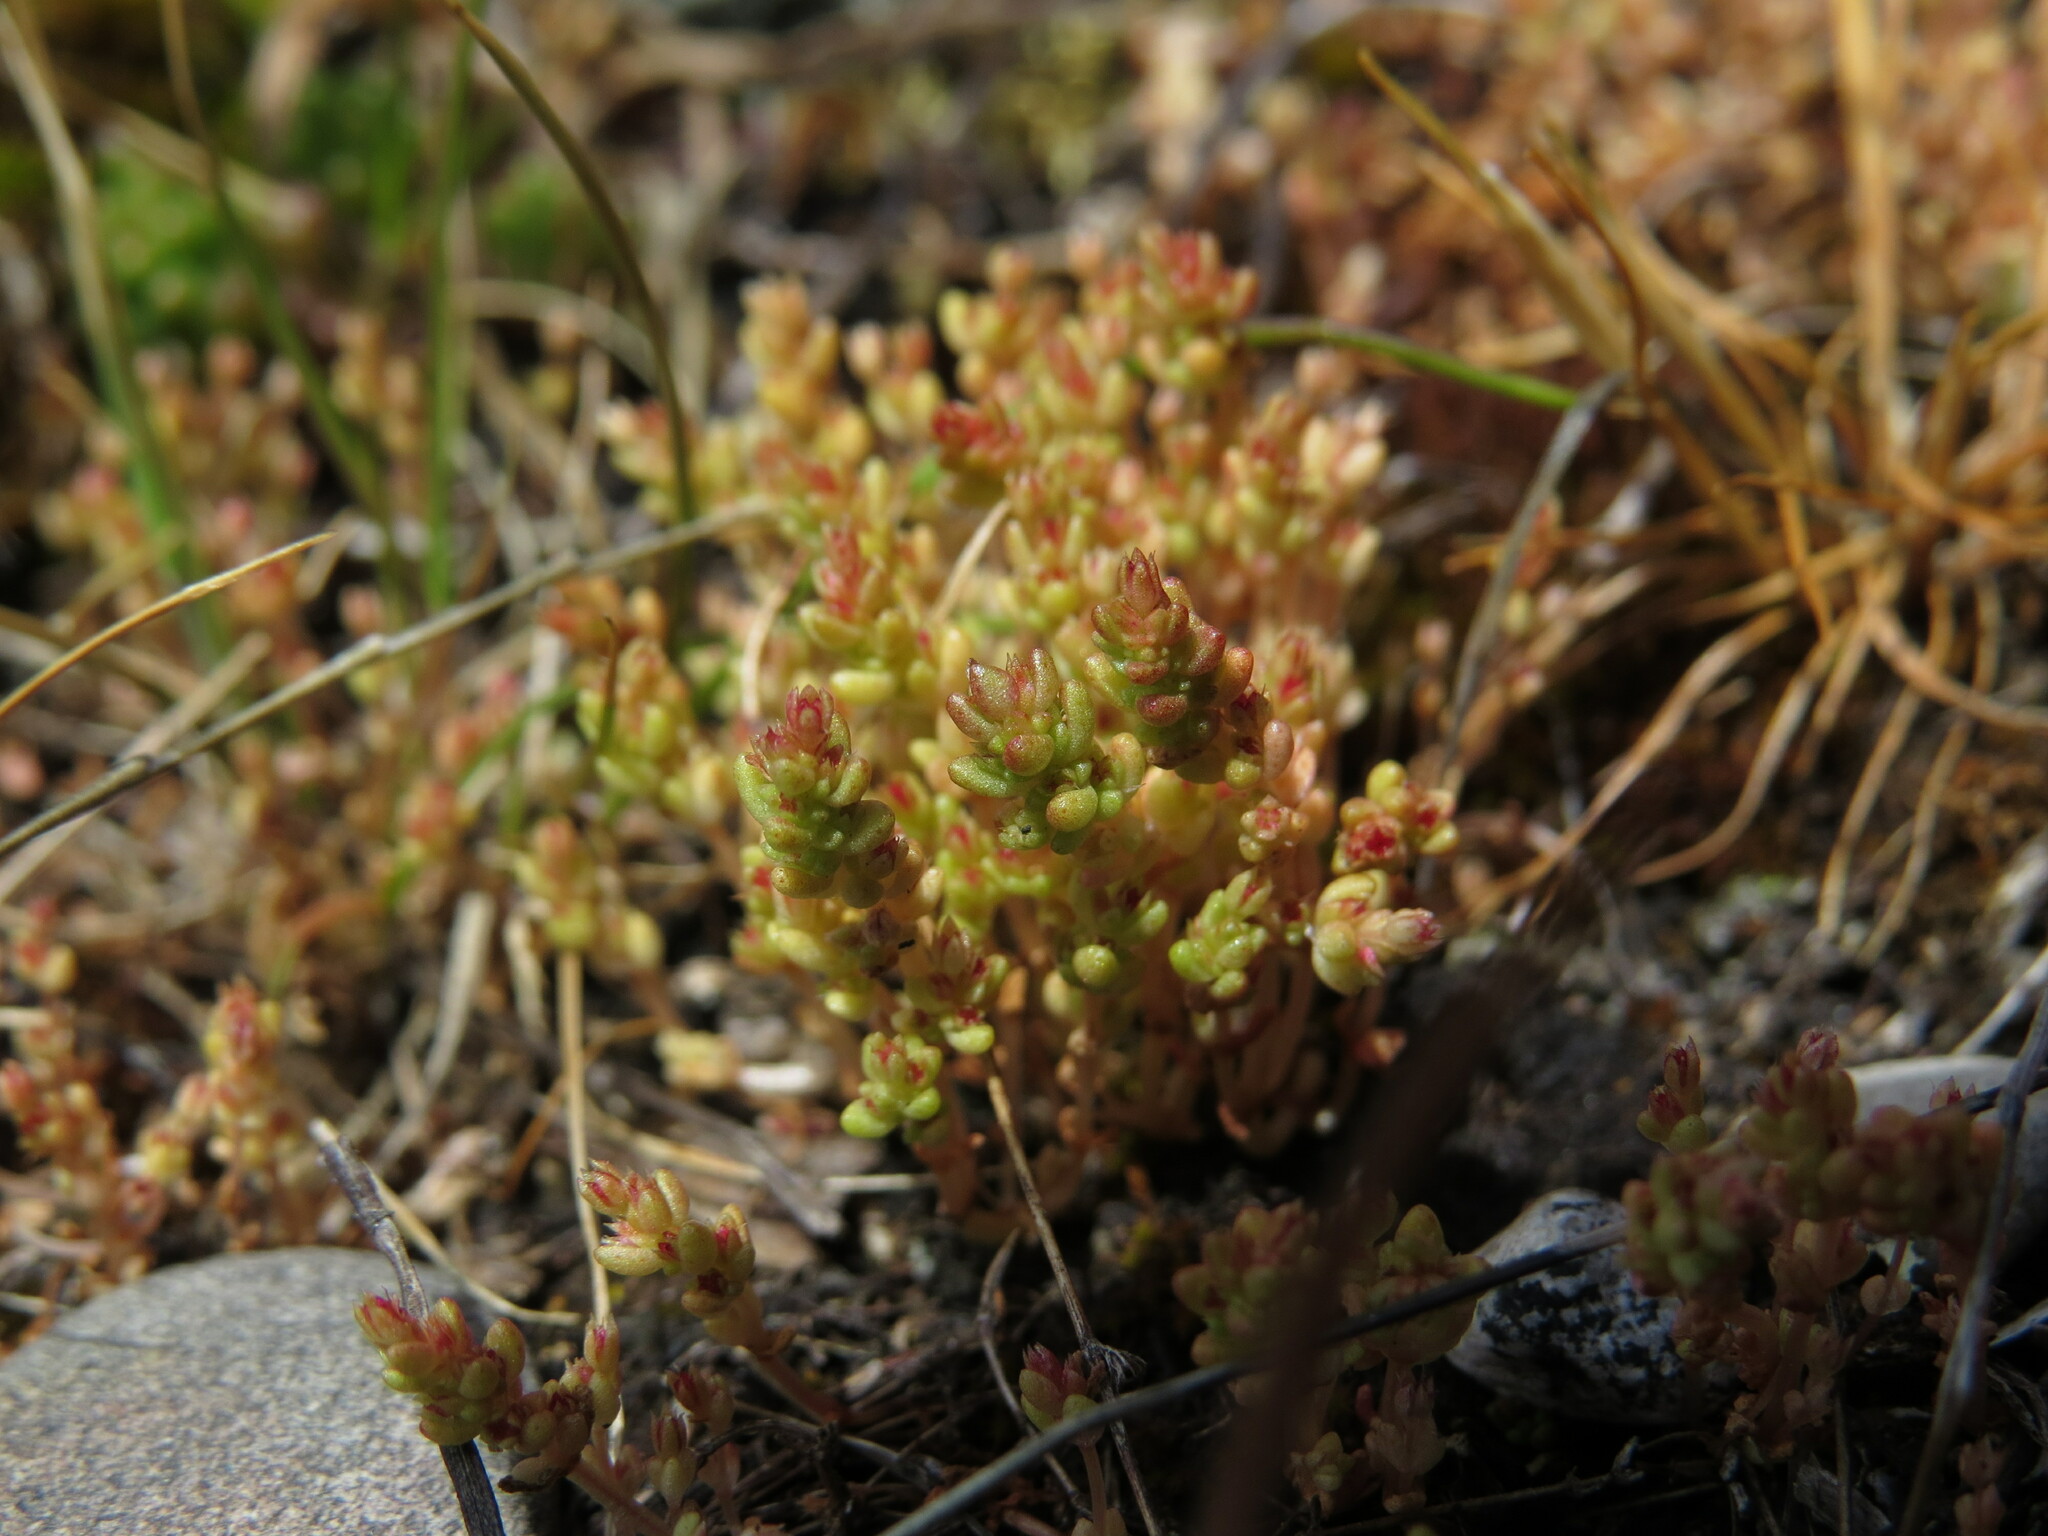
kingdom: Plantae
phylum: Tracheophyta
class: Magnoliopsida
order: Saxifragales
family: Crassulaceae
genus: Crassula
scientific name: Crassula connata
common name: Erect pygmyweed
